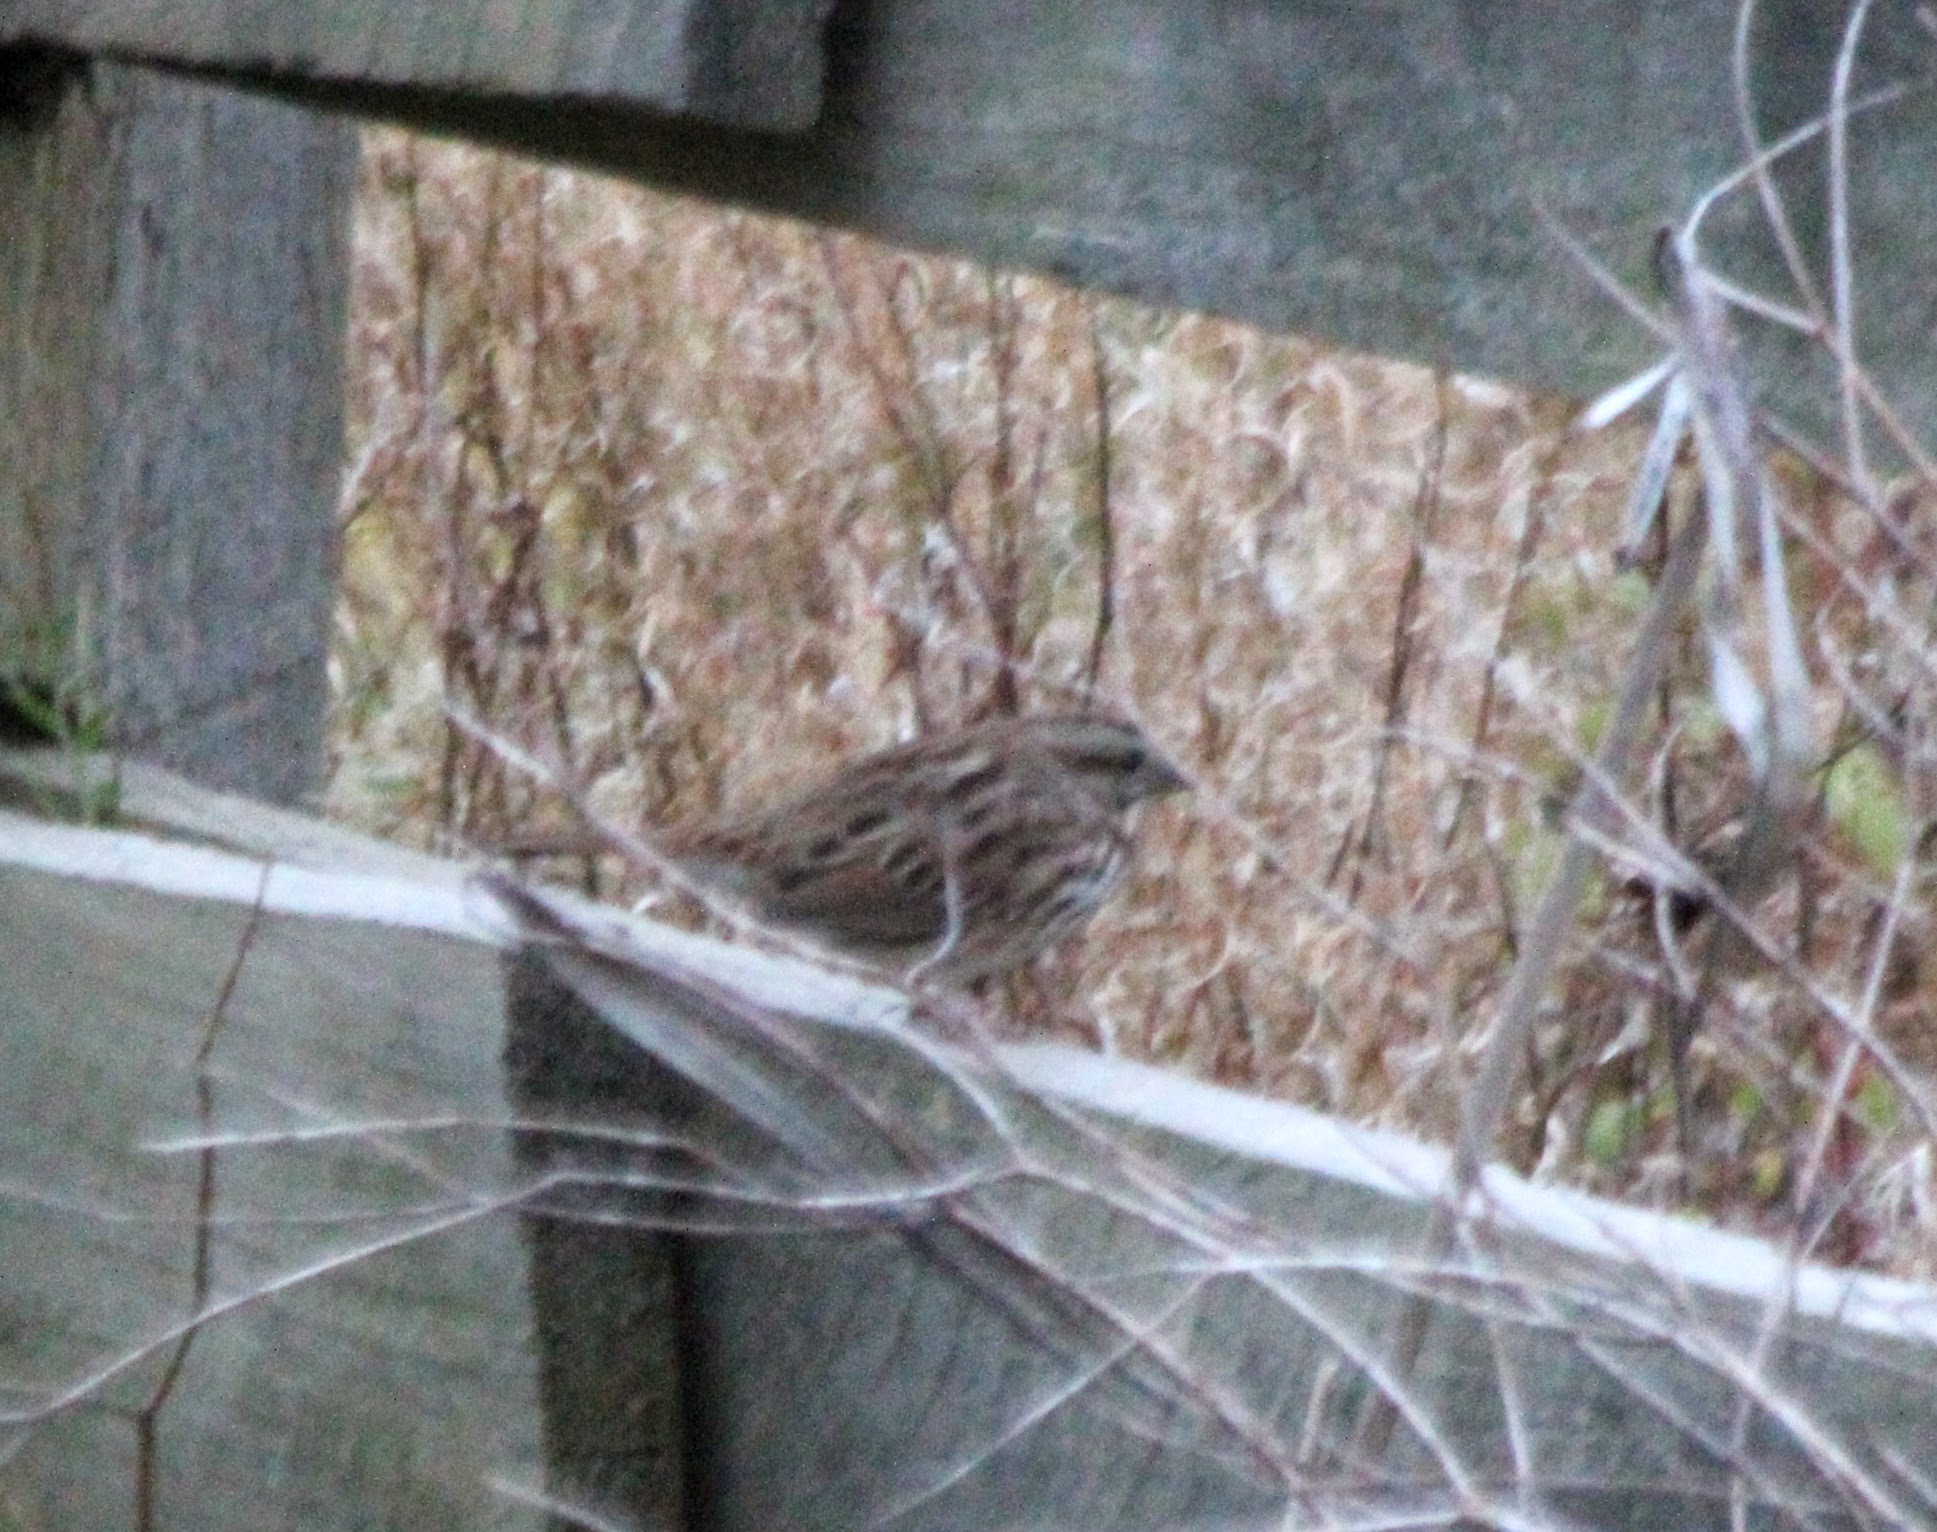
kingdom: Animalia
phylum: Chordata
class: Aves
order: Passeriformes
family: Passerellidae
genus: Melospiza
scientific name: Melospiza melodia
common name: Song sparrow
